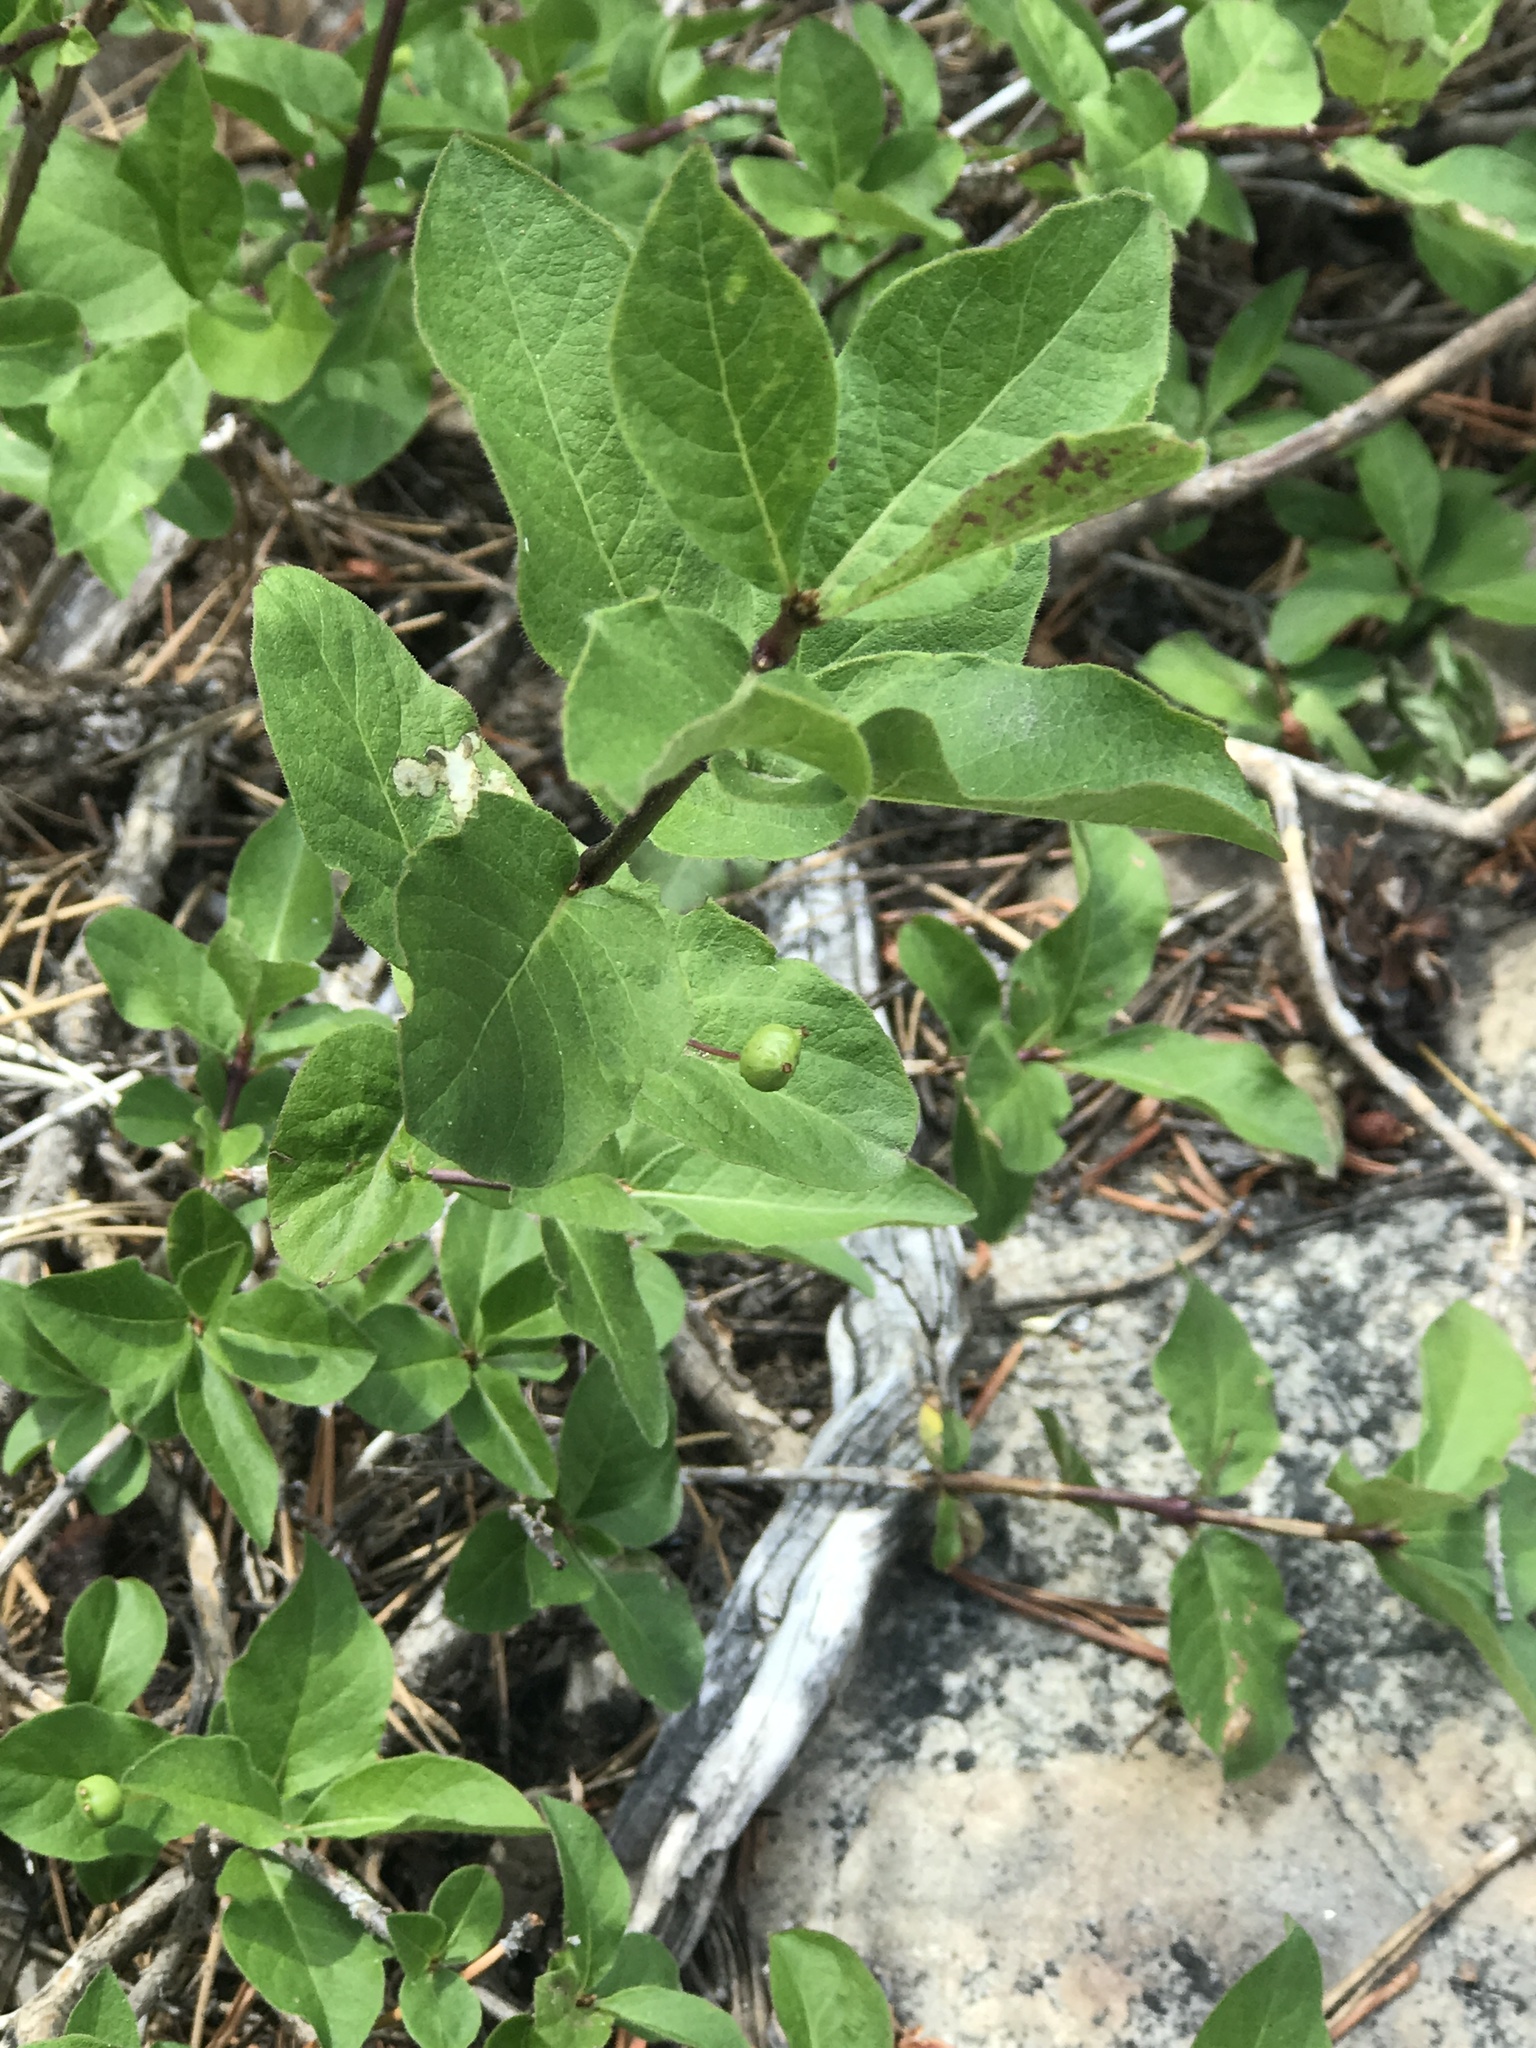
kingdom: Plantae
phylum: Tracheophyta
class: Magnoliopsida
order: Dipsacales
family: Caprifoliaceae
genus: Lonicera
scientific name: Lonicera conjugialis
